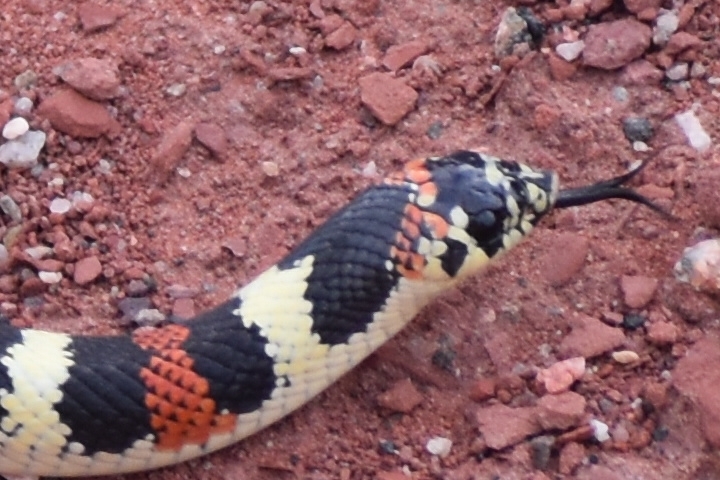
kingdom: Animalia
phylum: Chordata
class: Squamata
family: Colubridae
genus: Xenodon
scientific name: Xenodon semicinctus
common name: Ringed hognose snake
